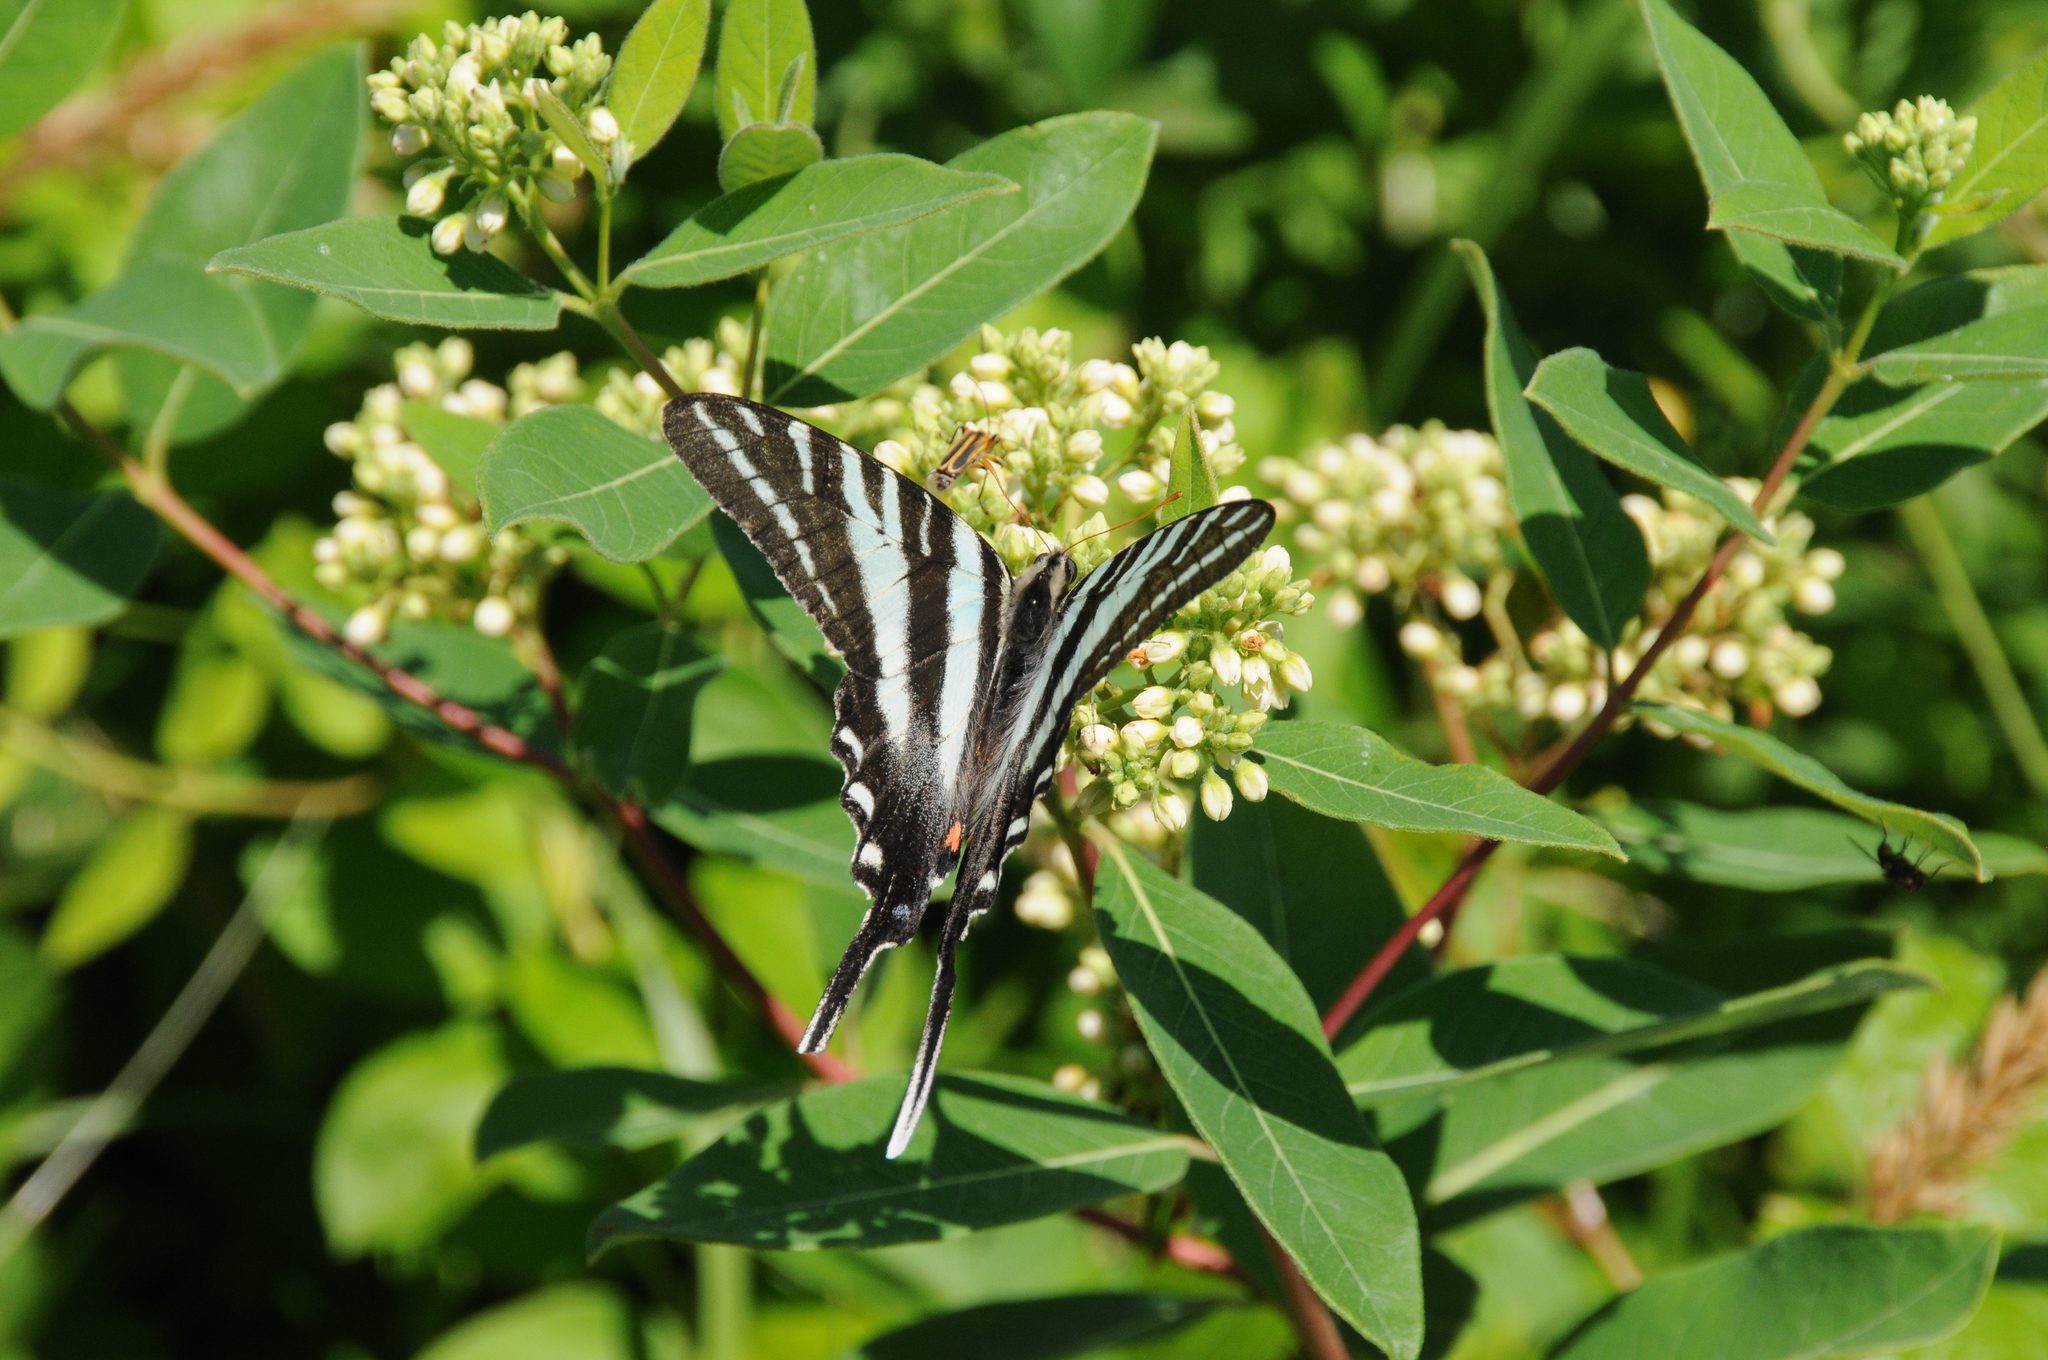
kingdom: Animalia
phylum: Arthropoda
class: Insecta
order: Lepidoptera
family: Papilionidae
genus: Protographium
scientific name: Protographium marcellus
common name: Zebra swallowtail
